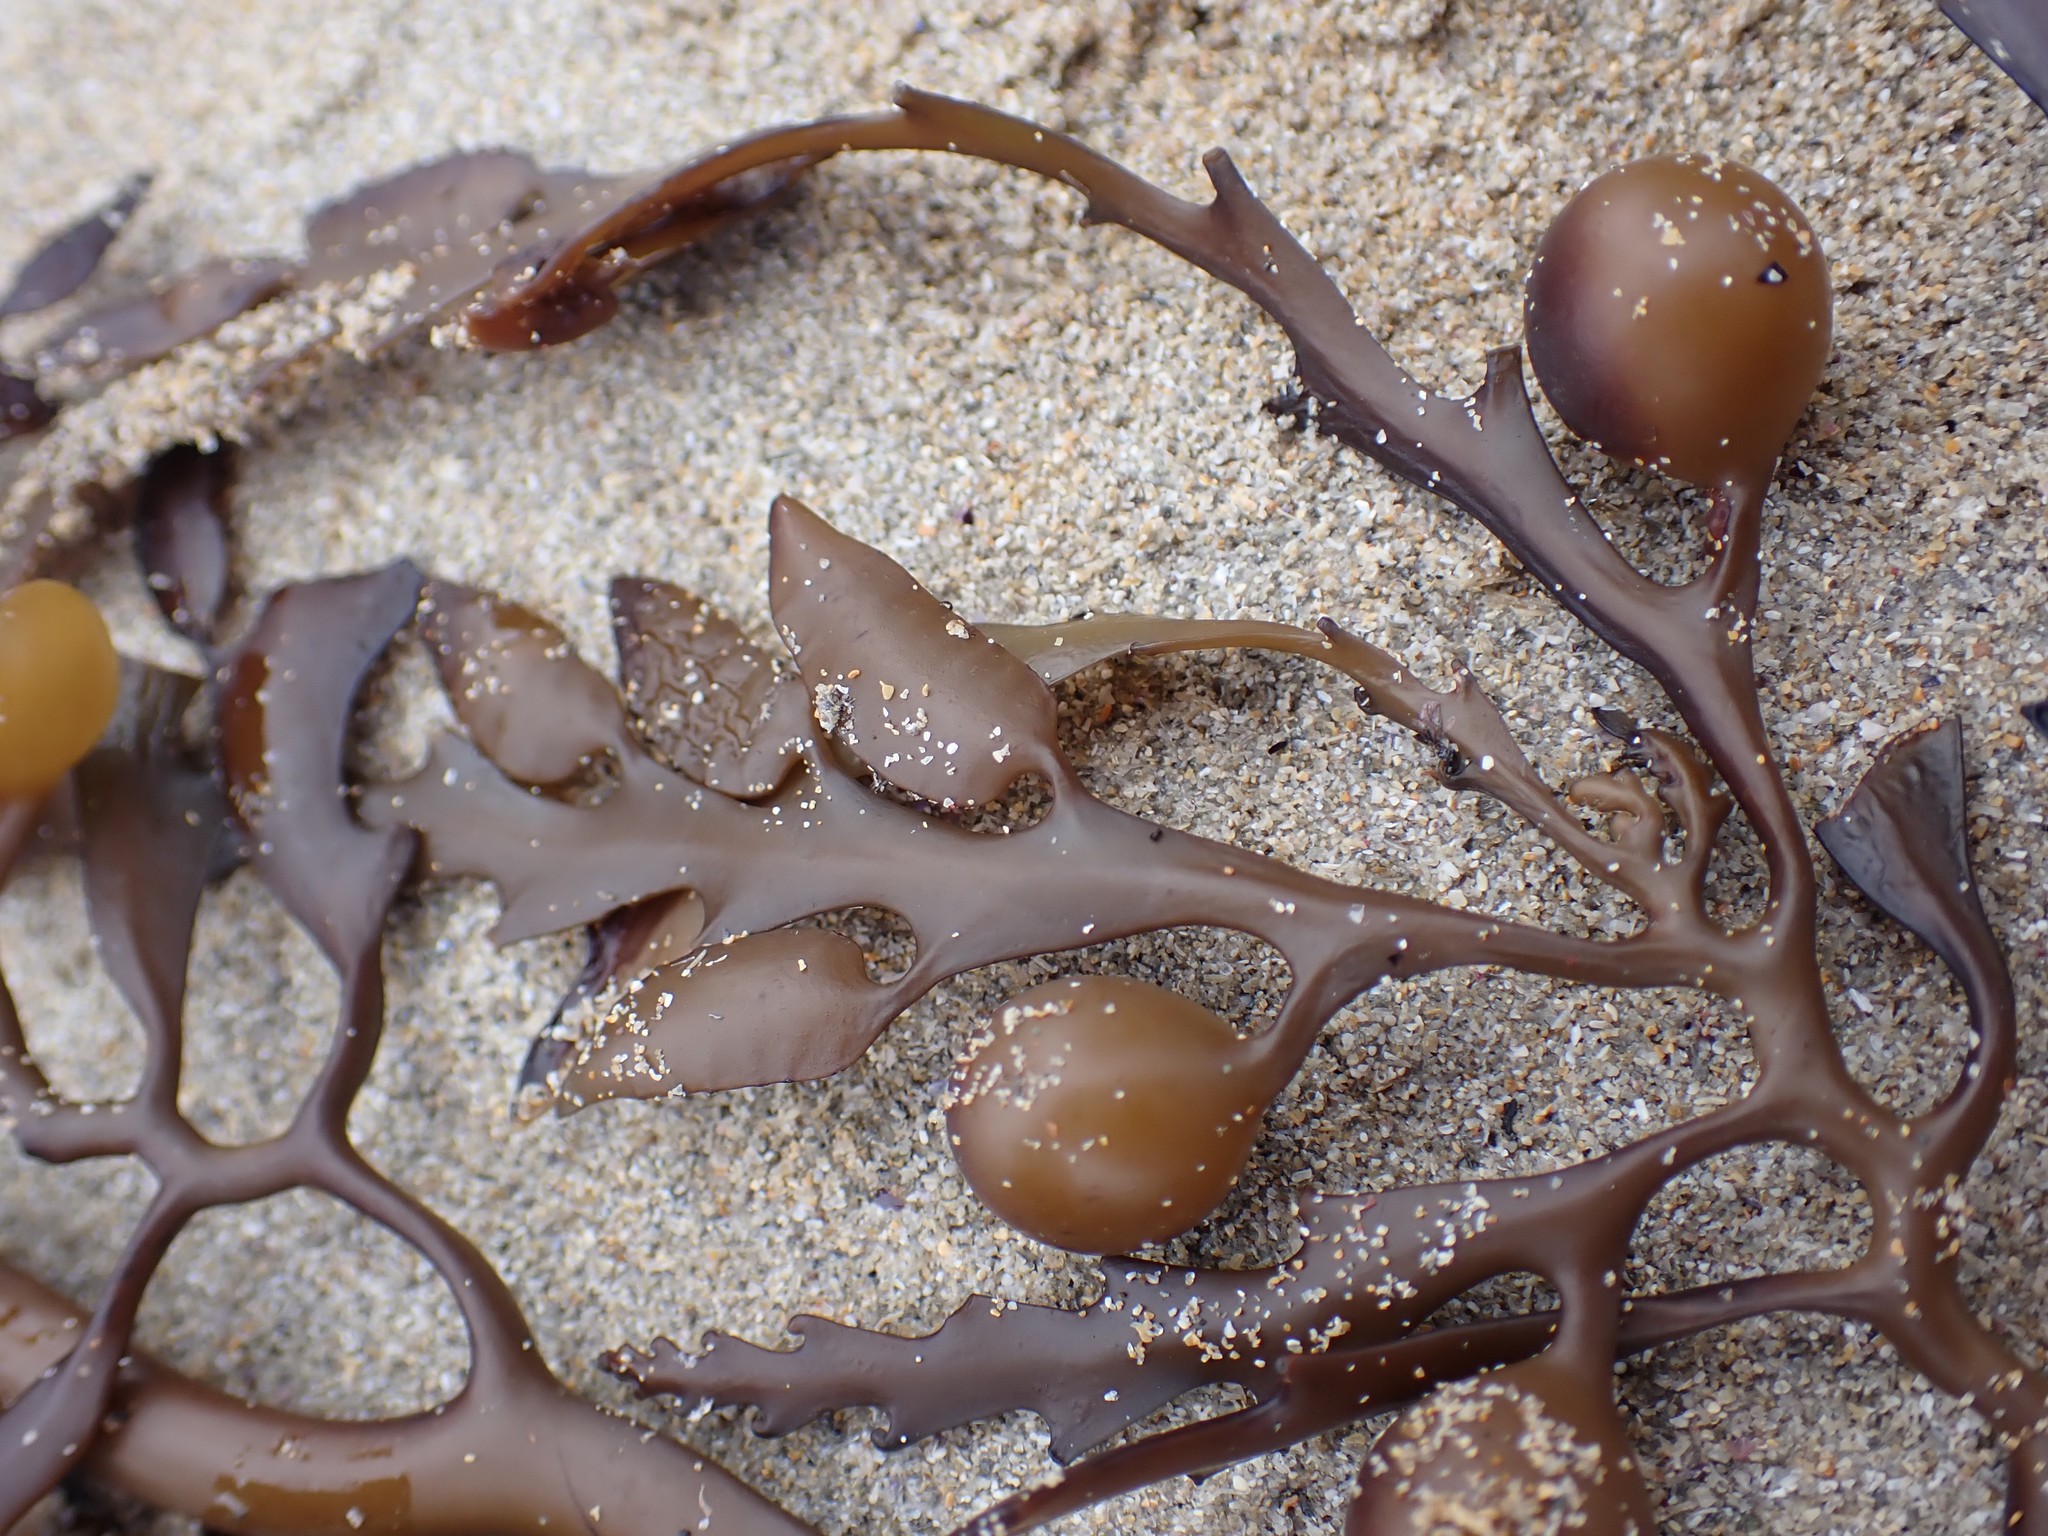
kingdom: Chromista
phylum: Ochrophyta
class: Phaeophyceae
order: Fucales
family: Sargassaceae
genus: Cystophora
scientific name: Cystophora platylobium
